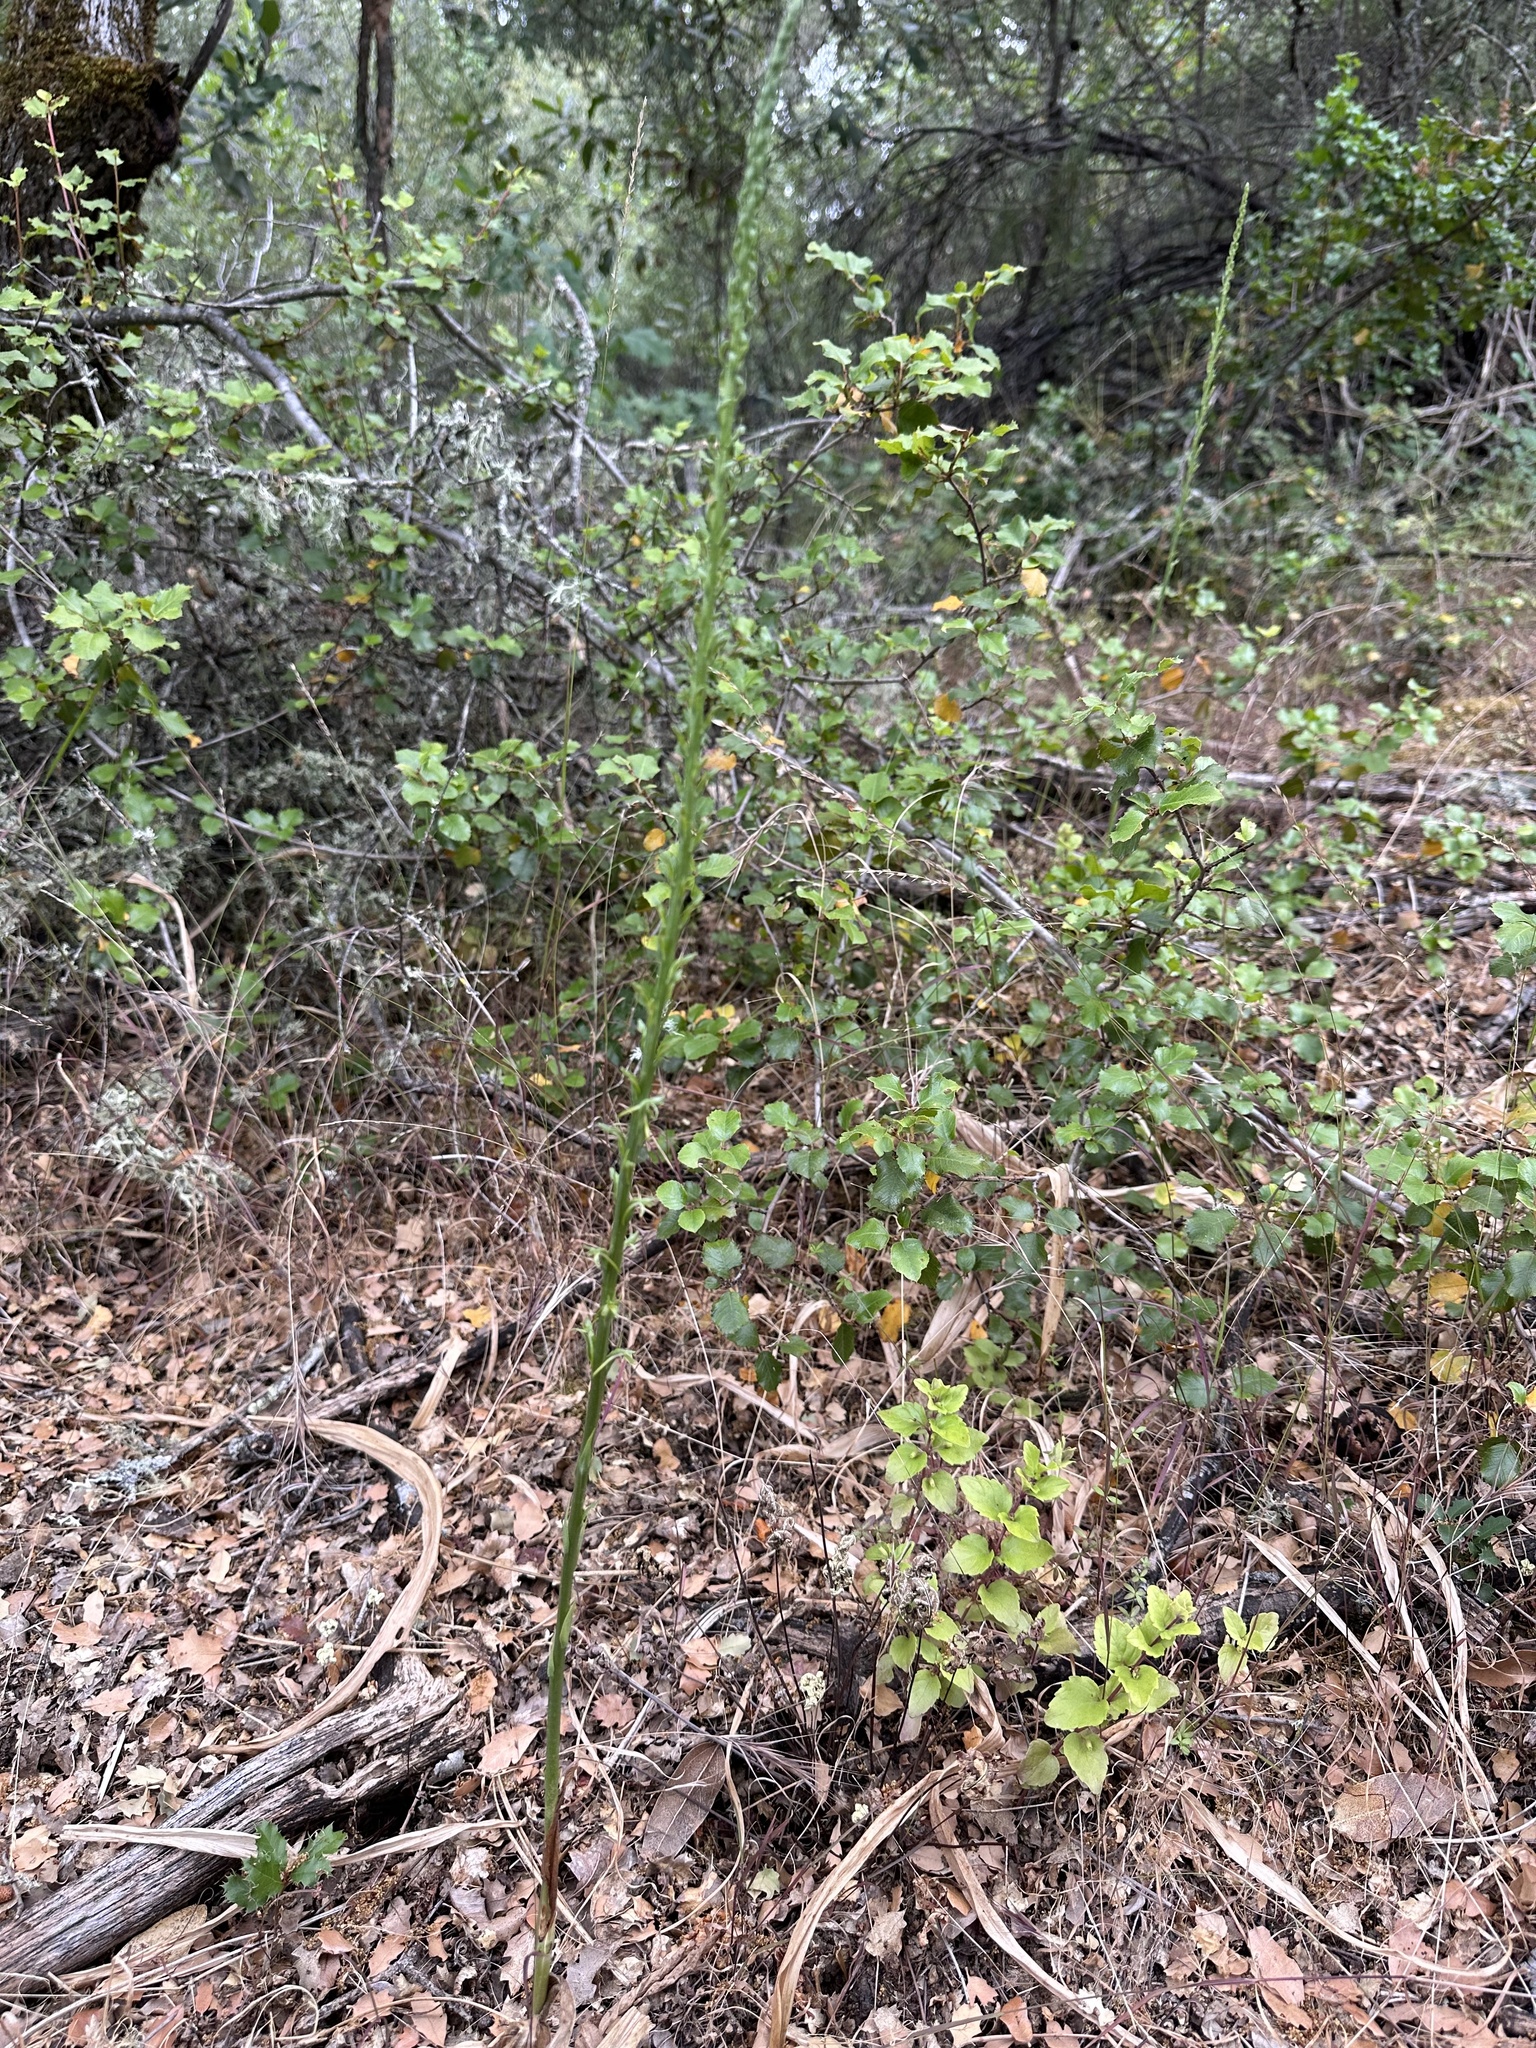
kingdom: Plantae
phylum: Tracheophyta
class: Liliopsida
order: Asparagales
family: Orchidaceae
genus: Platanthera
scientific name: Platanthera elongata
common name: Dense-flowered rein orchid
